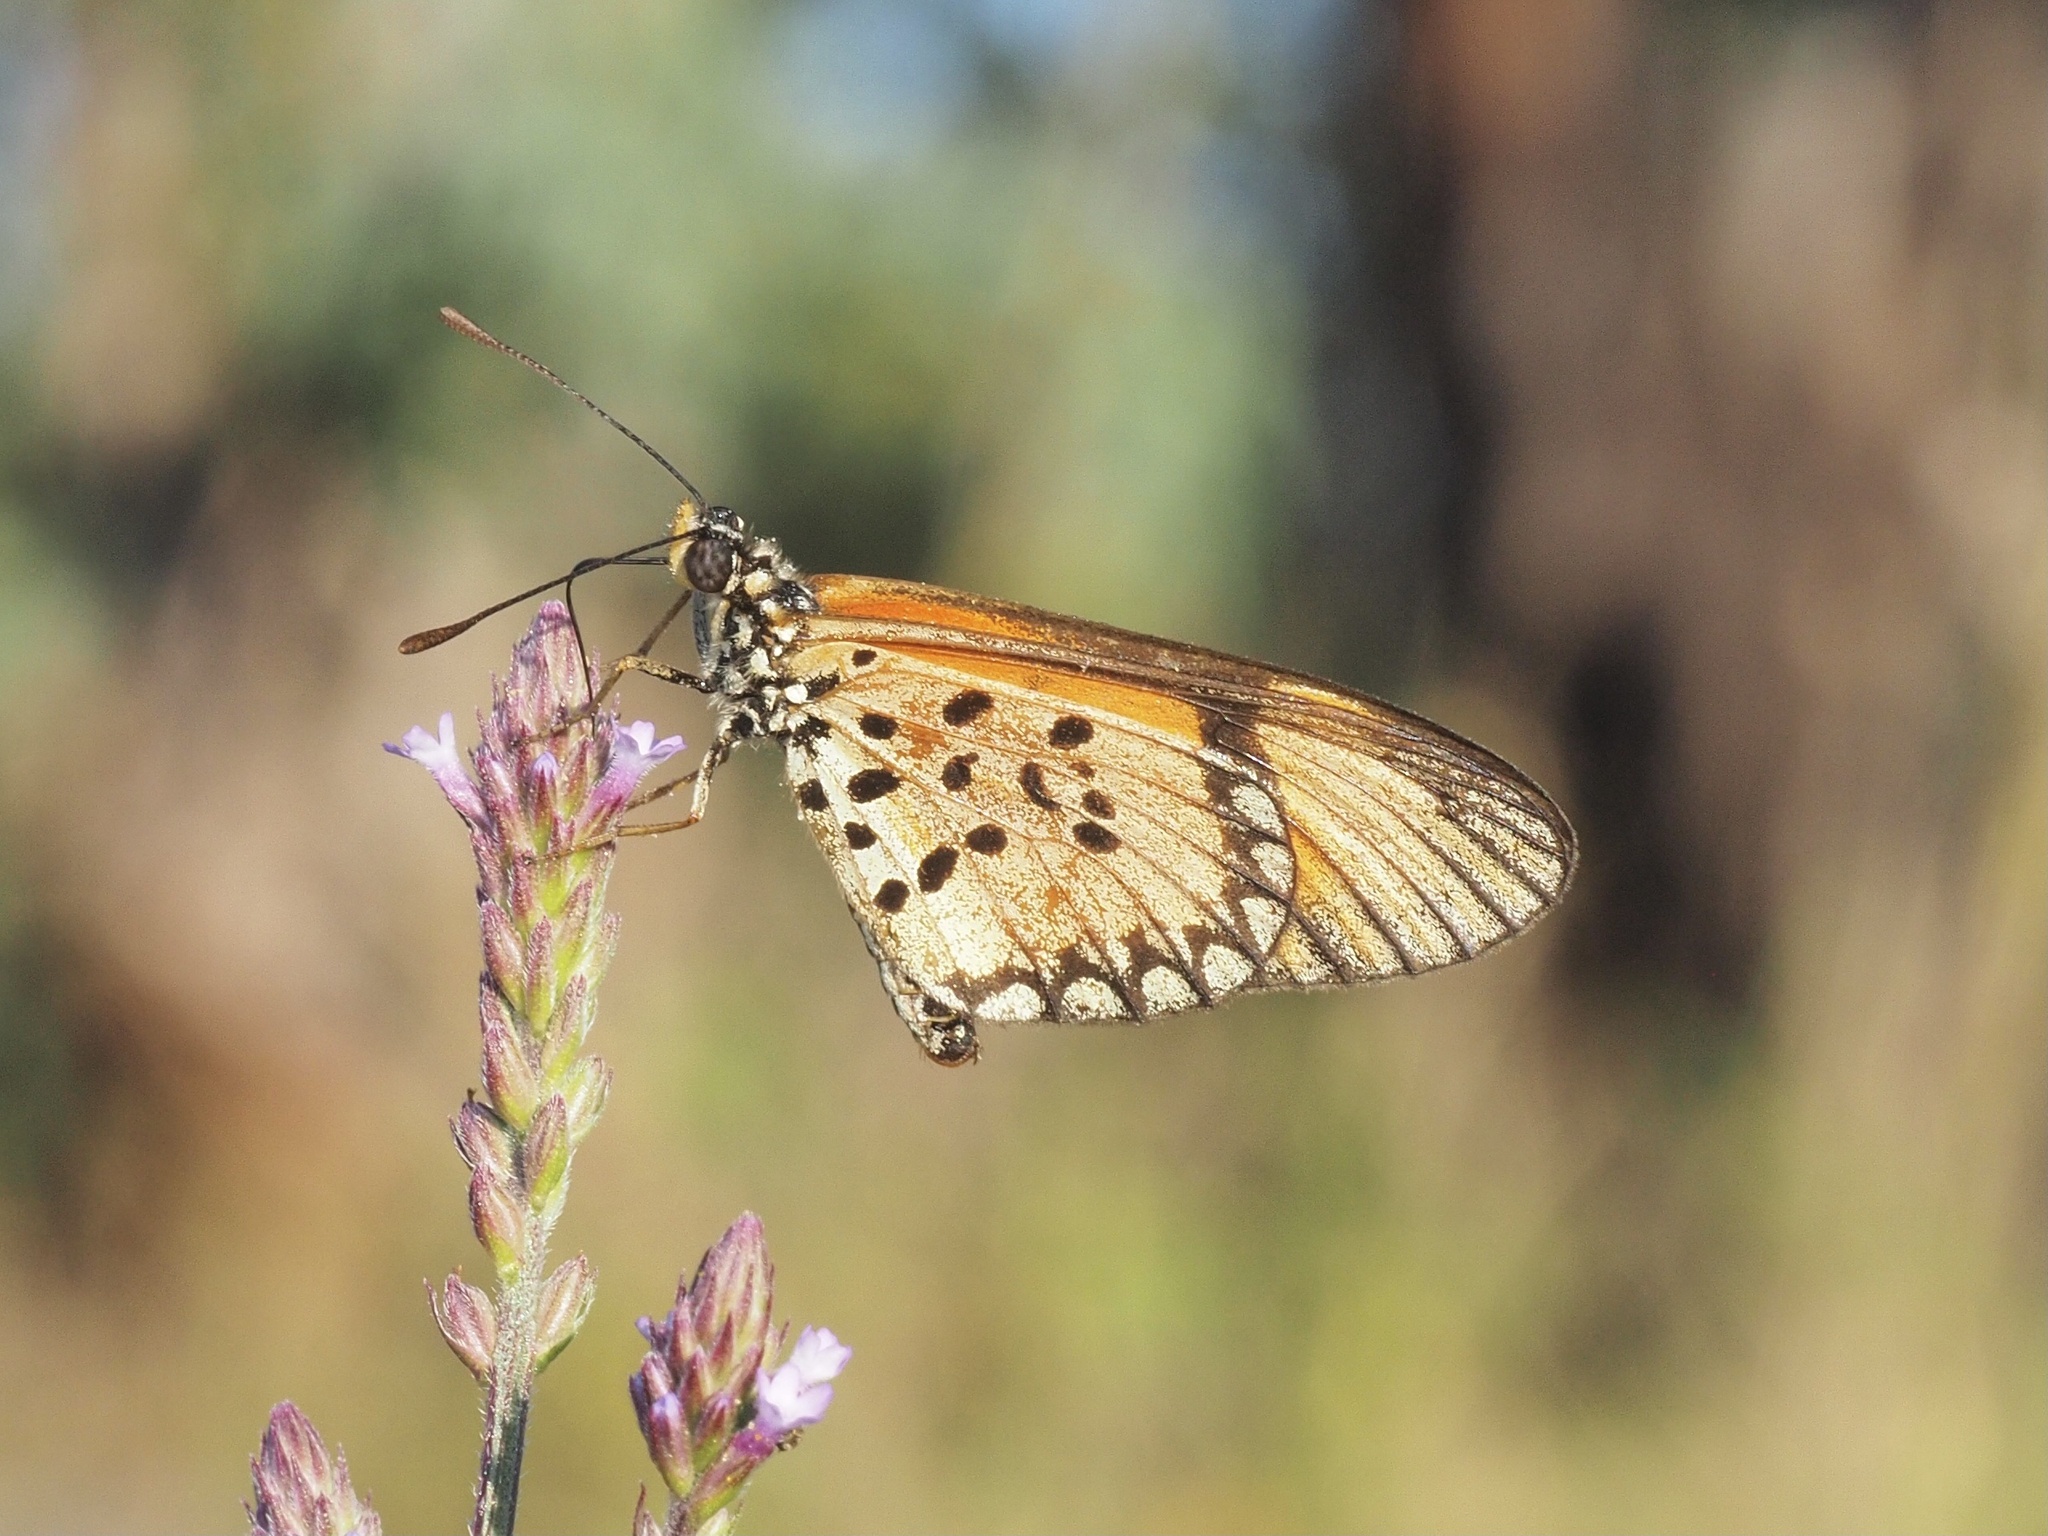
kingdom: Animalia
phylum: Arthropoda
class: Insecta
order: Lepidoptera
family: Nymphalidae
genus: Acraea
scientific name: Acraea Telchinia serena
